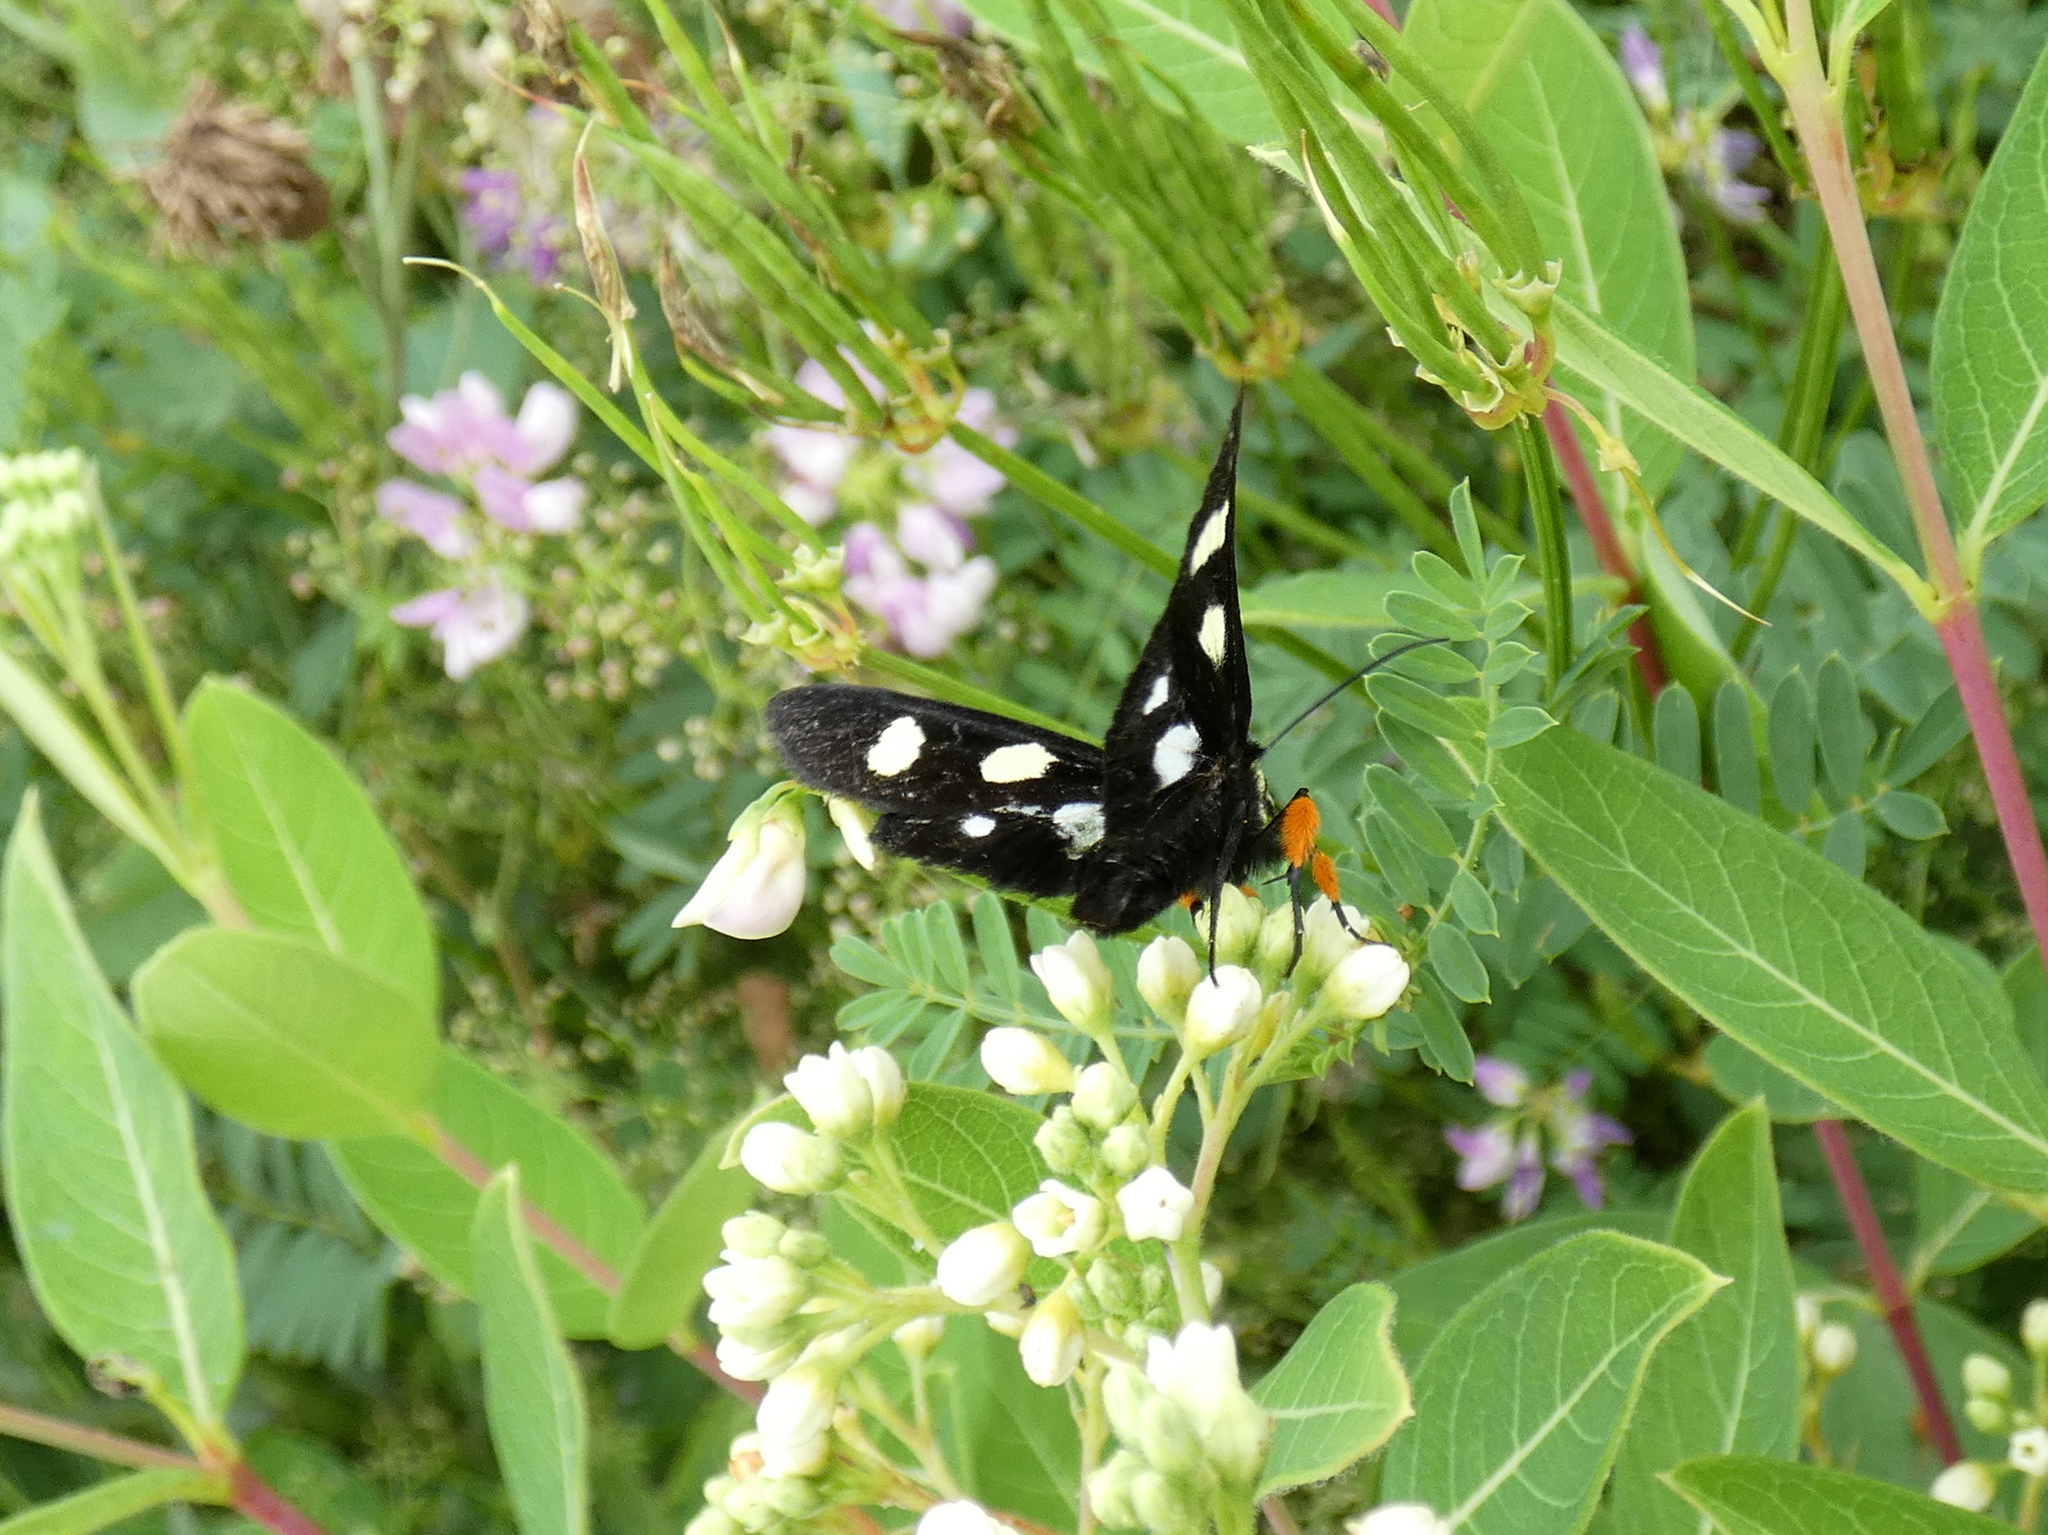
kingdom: Animalia
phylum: Arthropoda
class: Insecta
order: Lepidoptera
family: Noctuidae
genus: Alypia
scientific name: Alypia octomaculata
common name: Eight-spotted forester
